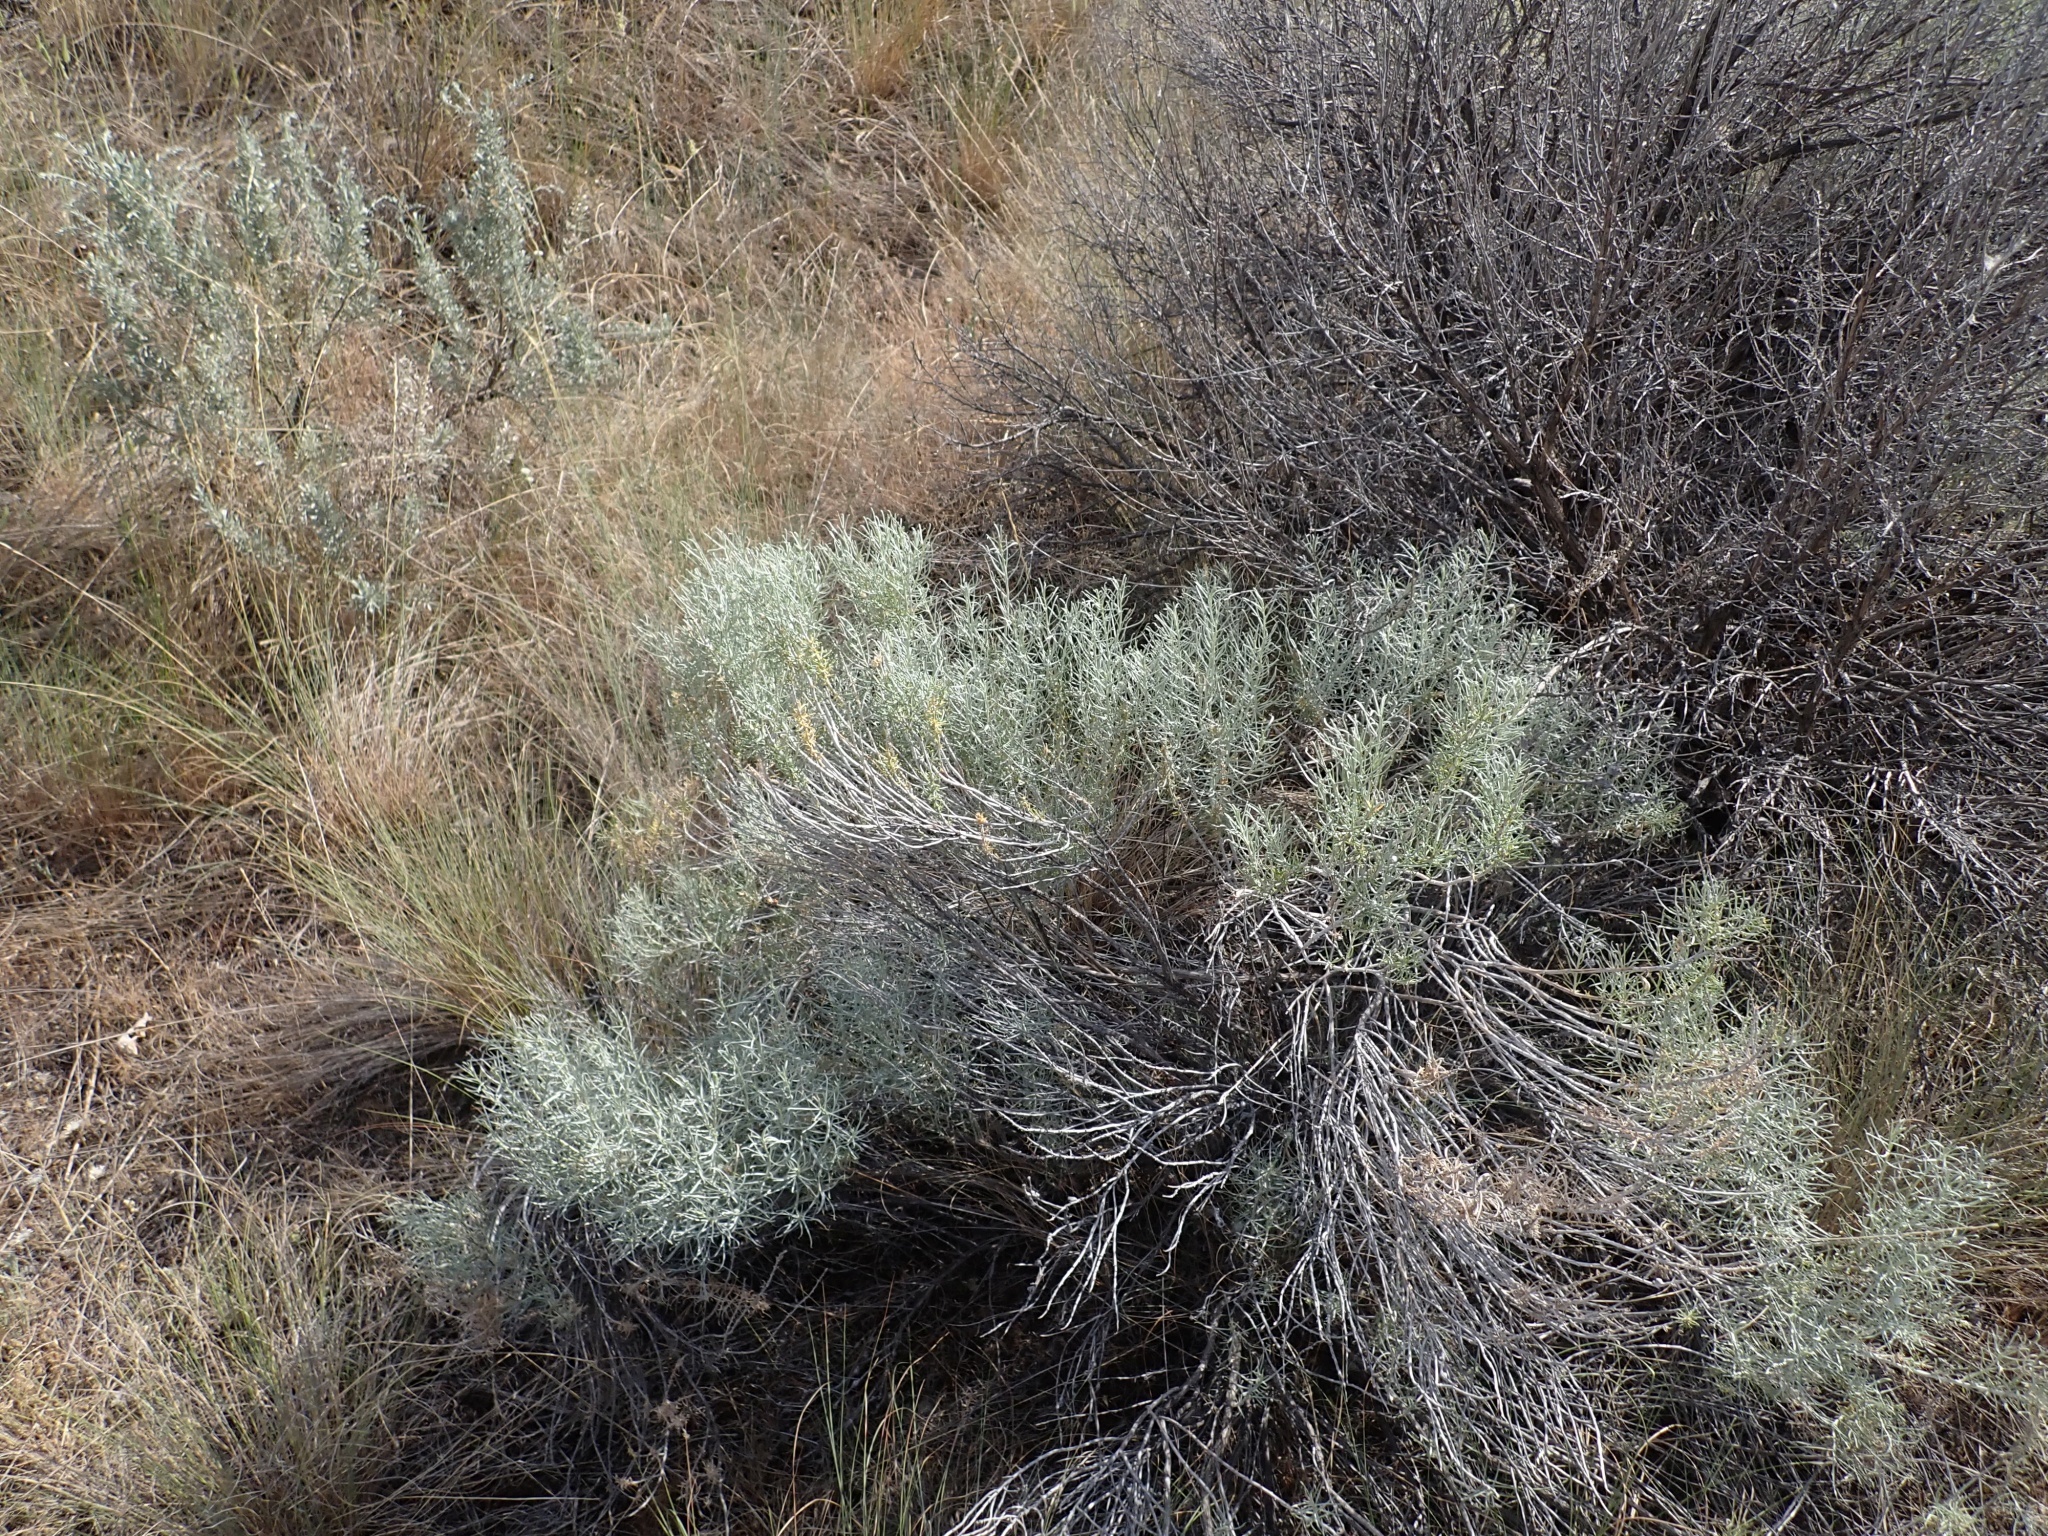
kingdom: Plantae
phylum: Tracheophyta
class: Magnoliopsida
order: Asterales
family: Asteraceae
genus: Ericameria
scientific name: Ericameria nauseosa
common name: Rubber rabbitbrush
